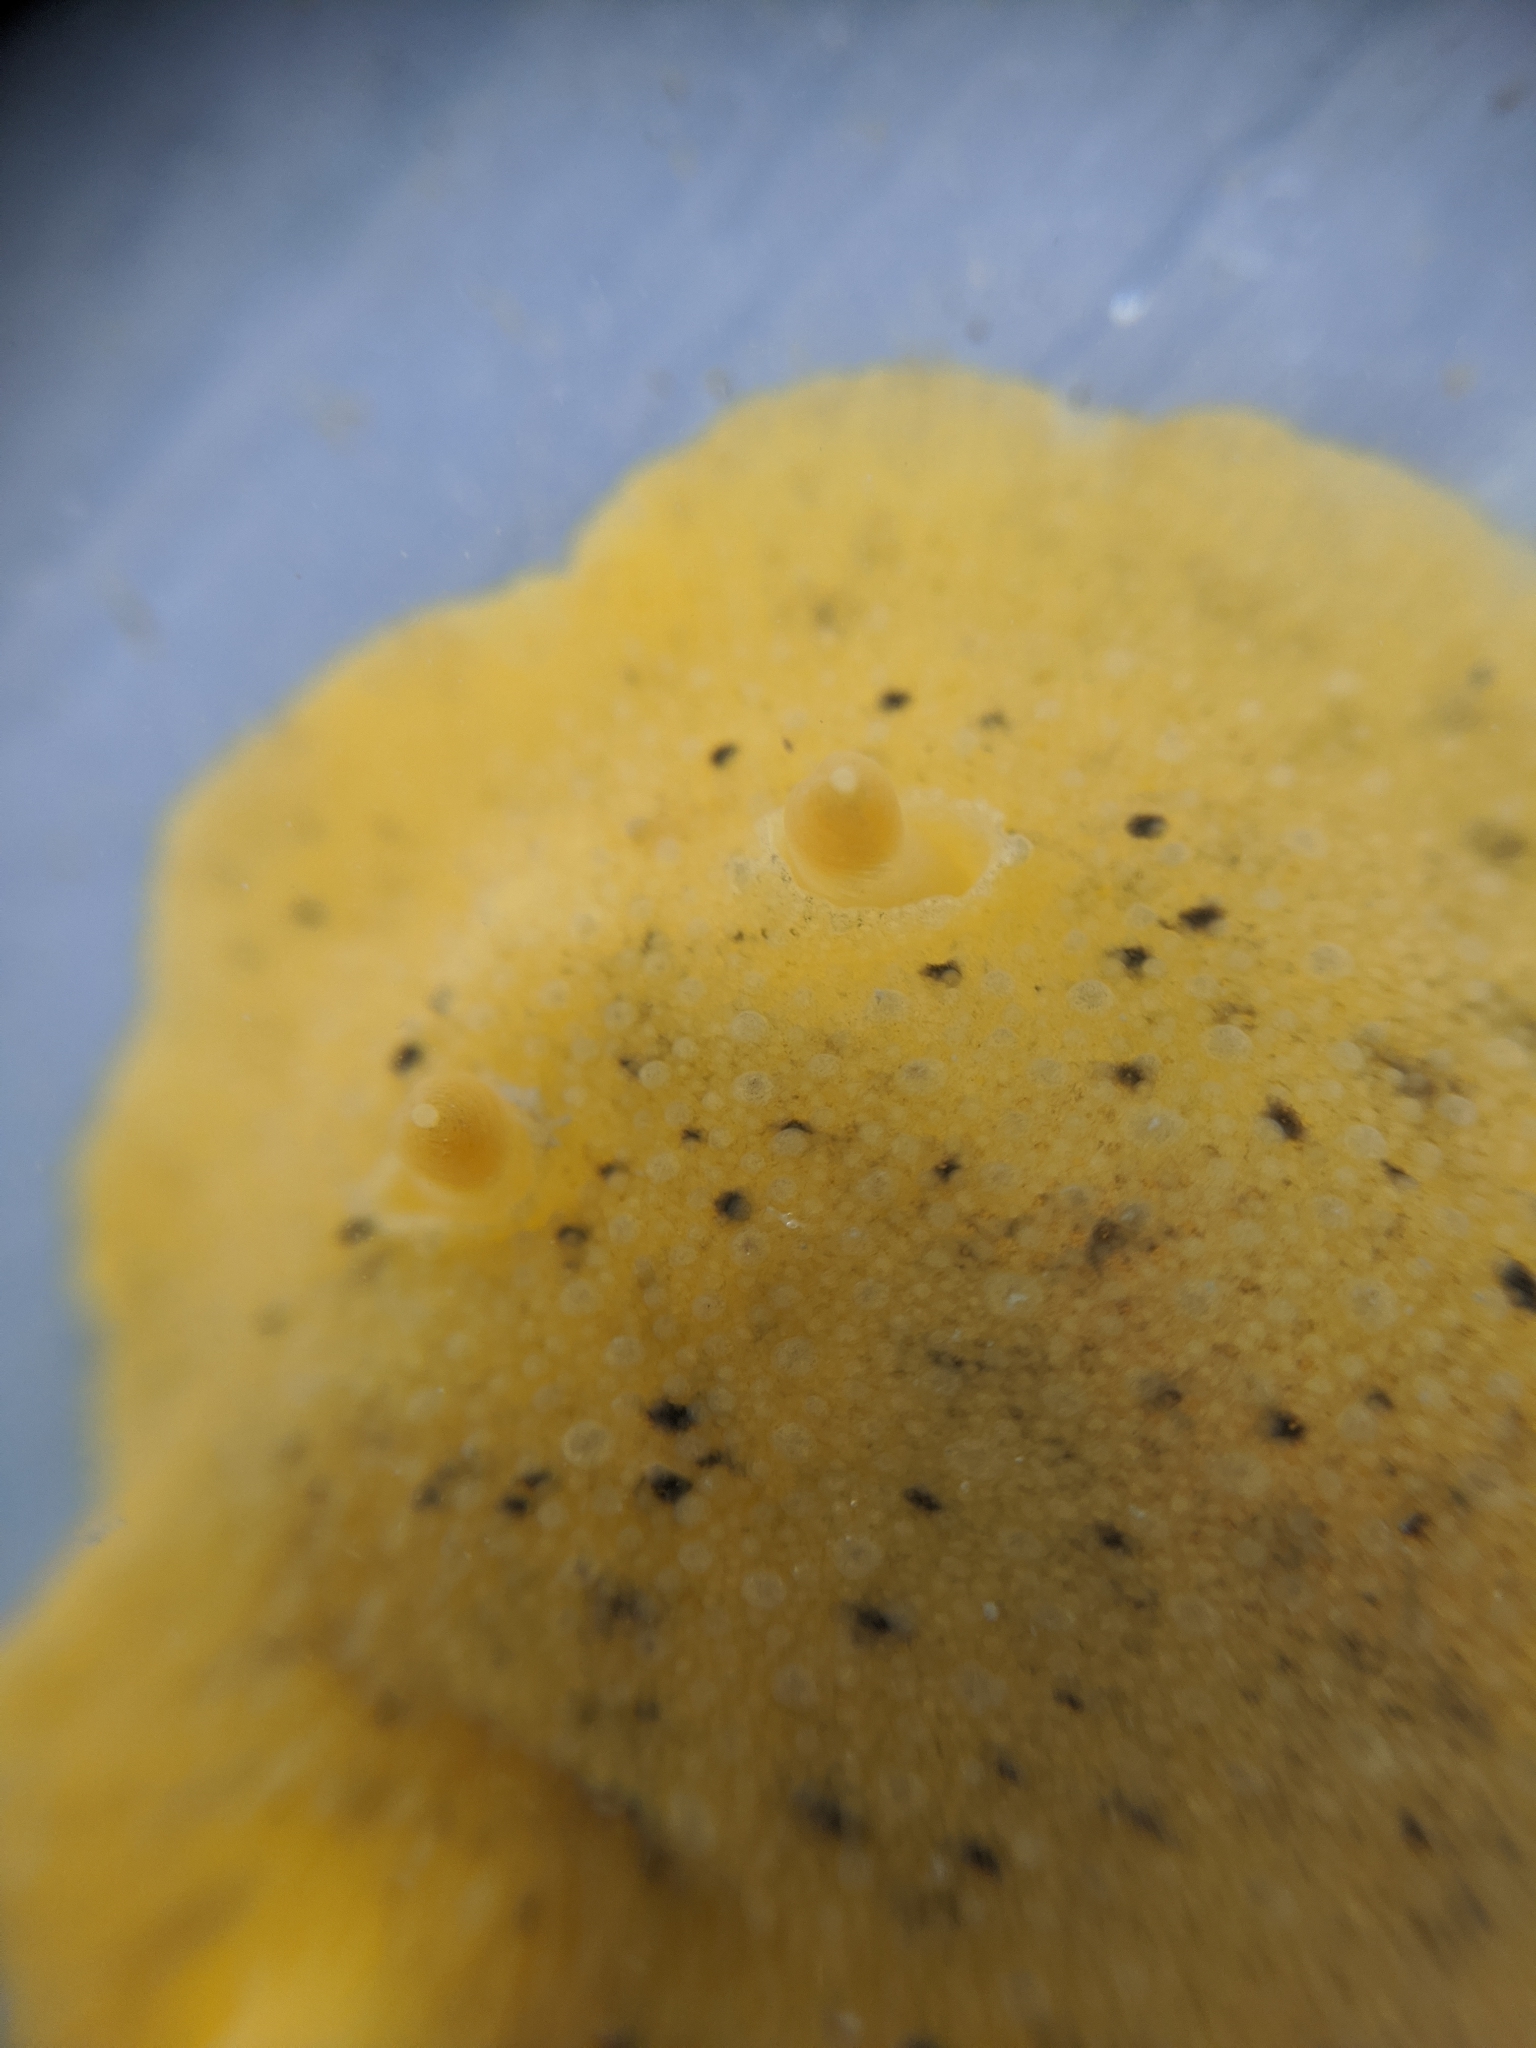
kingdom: Animalia
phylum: Mollusca
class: Gastropoda
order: Nudibranchia
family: Discodorididae
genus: Geitodoris
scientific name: Geitodoris heathi
